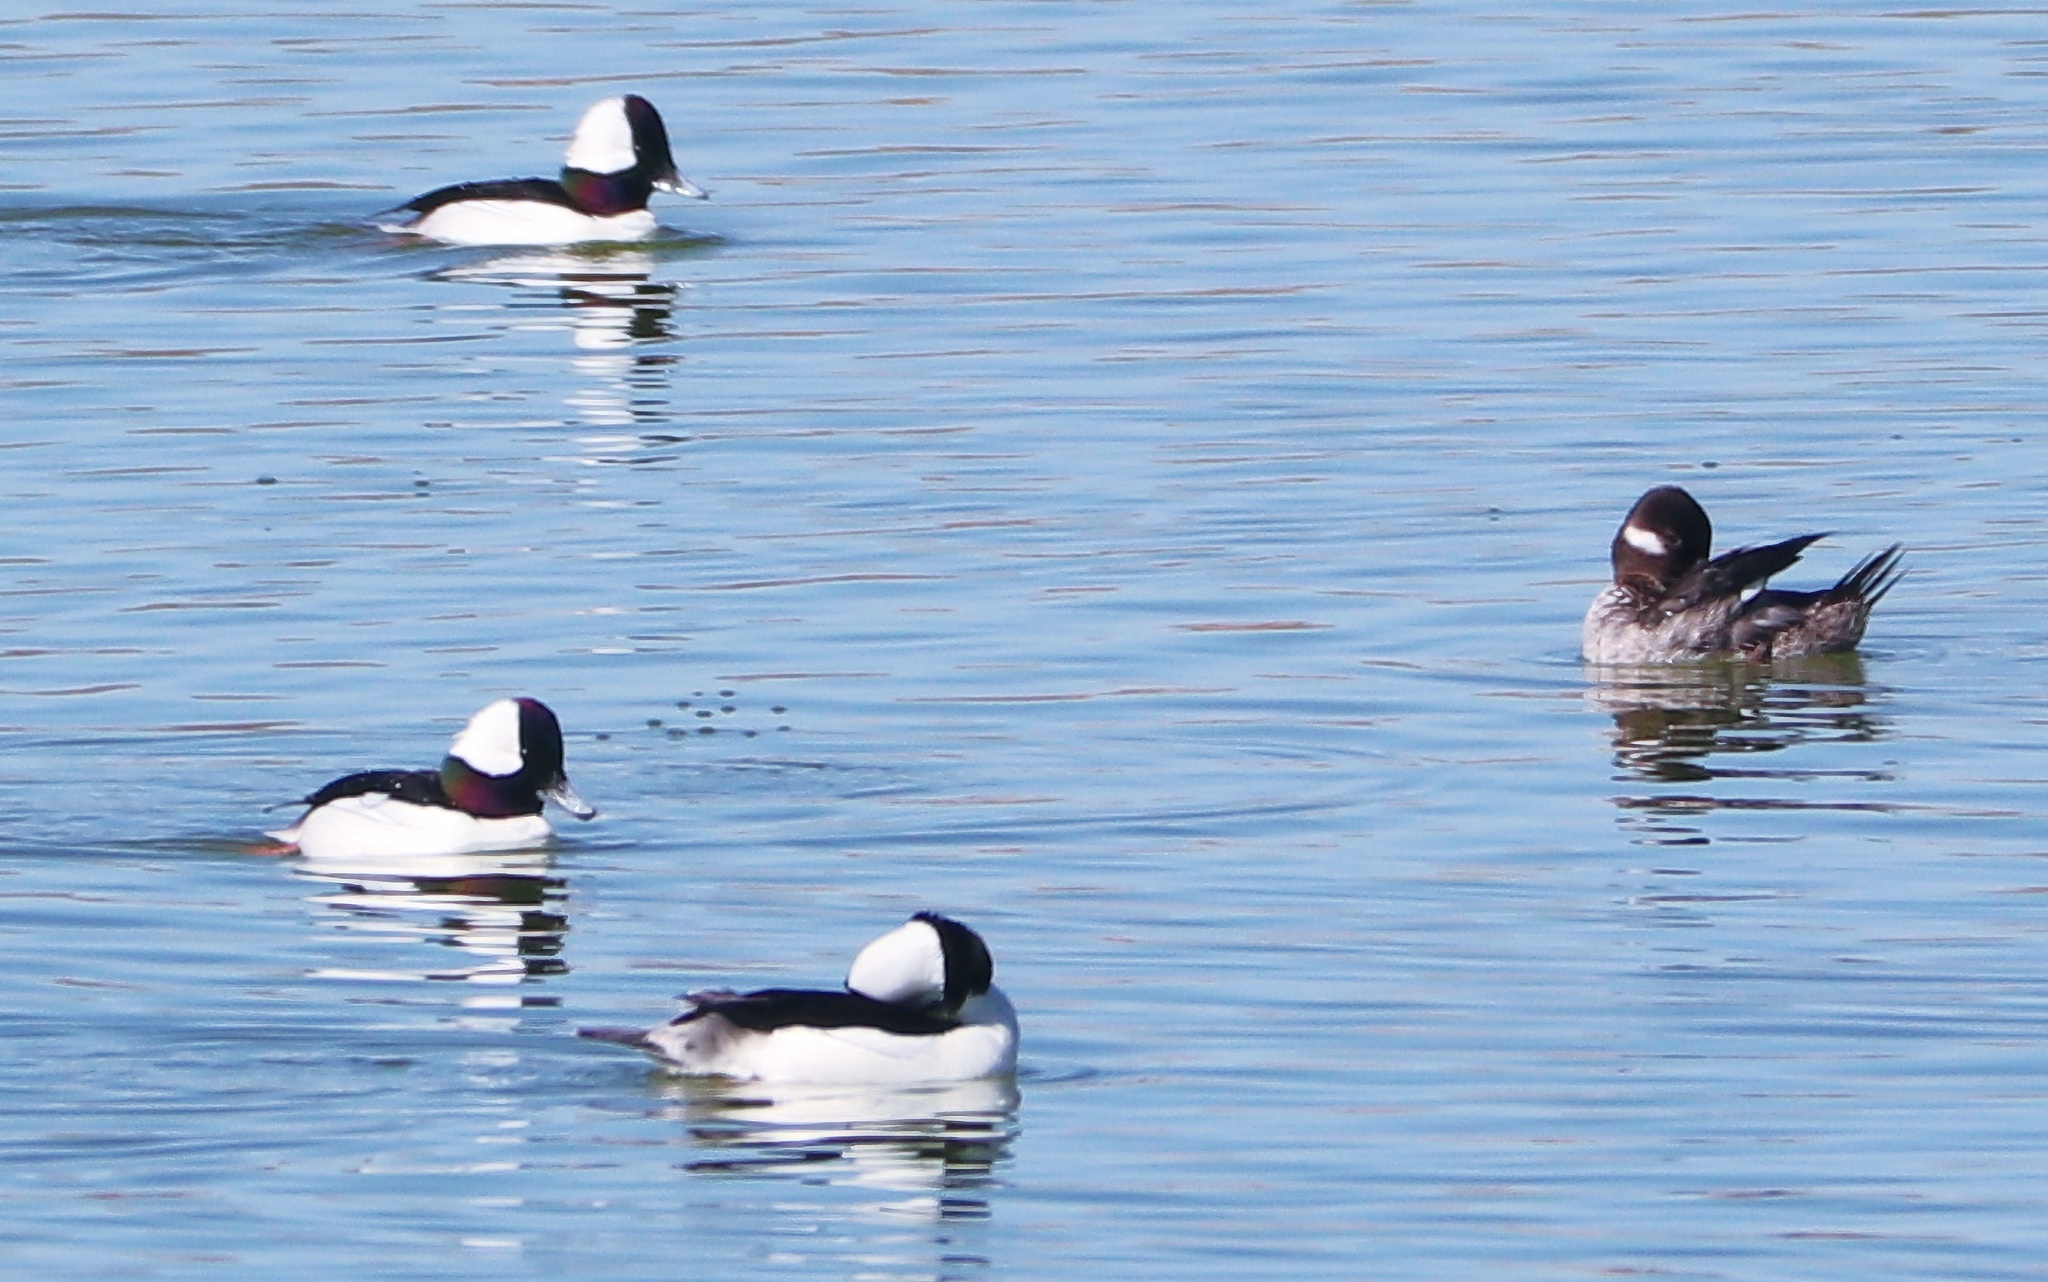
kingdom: Animalia
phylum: Chordata
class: Aves
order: Anseriformes
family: Anatidae
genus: Bucephala
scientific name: Bucephala albeola
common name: Bufflehead
